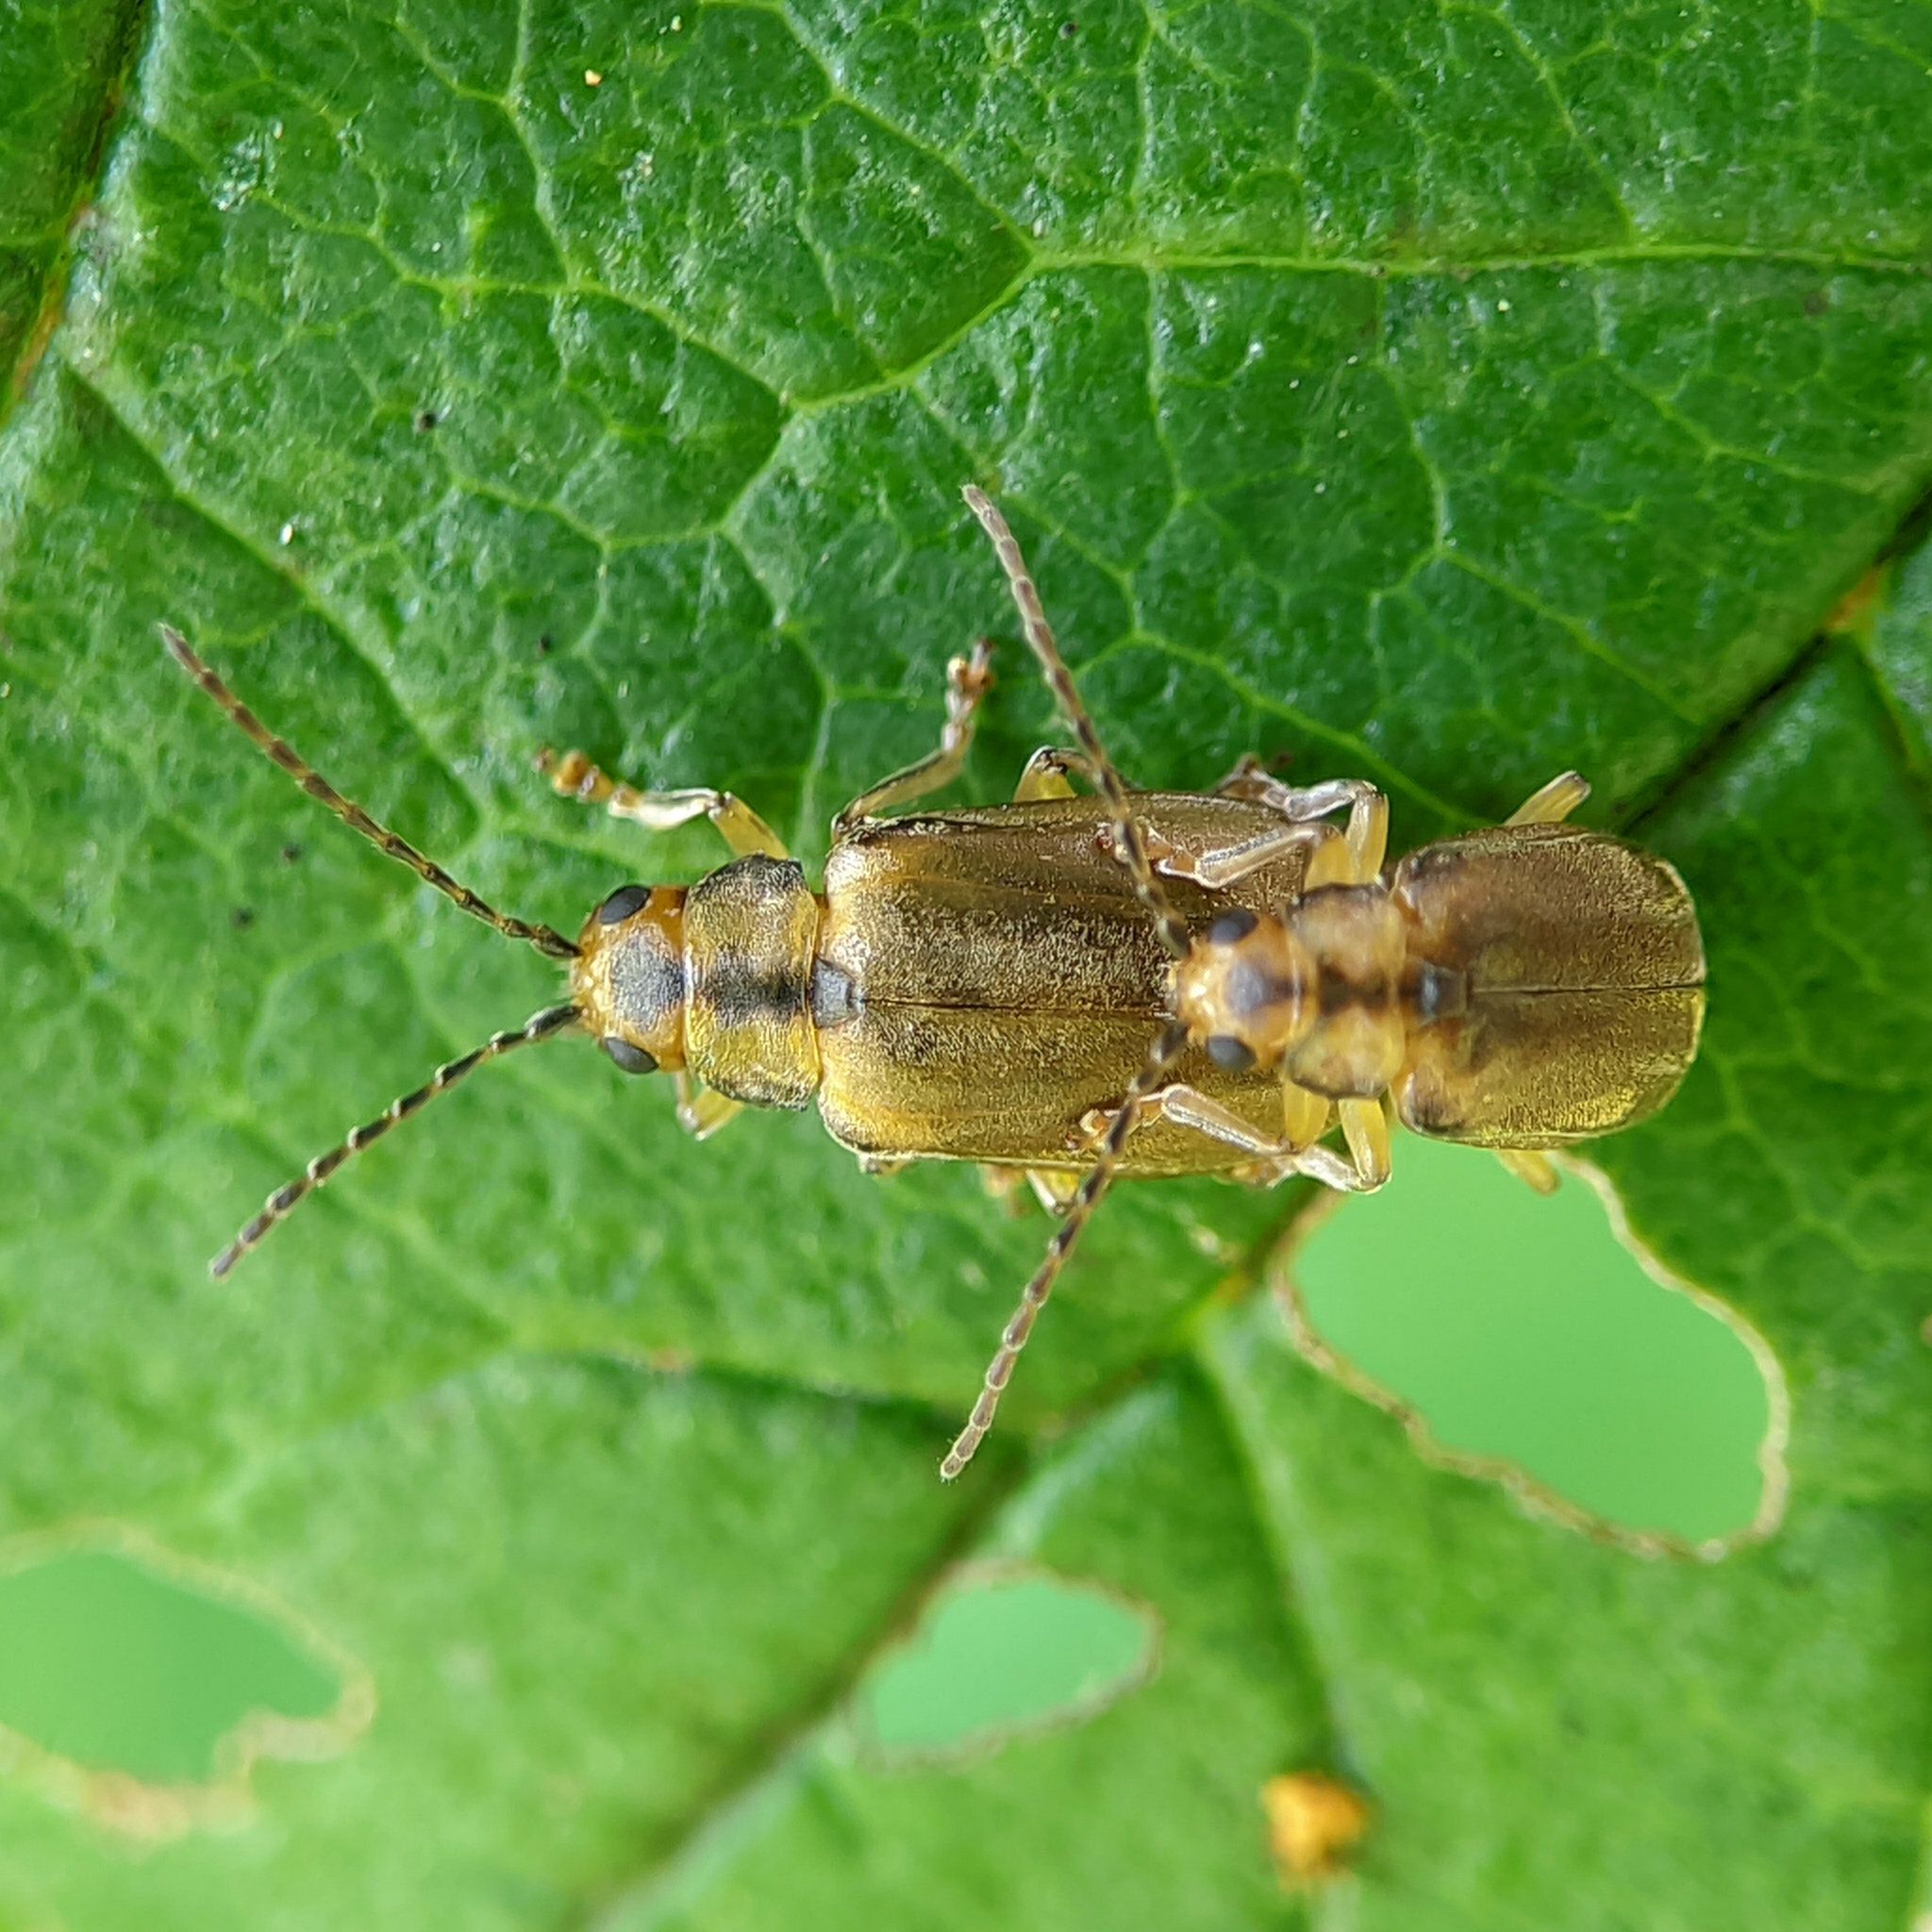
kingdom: Animalia
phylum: Arthropoda
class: Insecta
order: Coleoptera
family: Chrysomelidae
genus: Pyrrhalta
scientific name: Pyrrhalta viburni
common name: Guelder-rose leaf beetle
